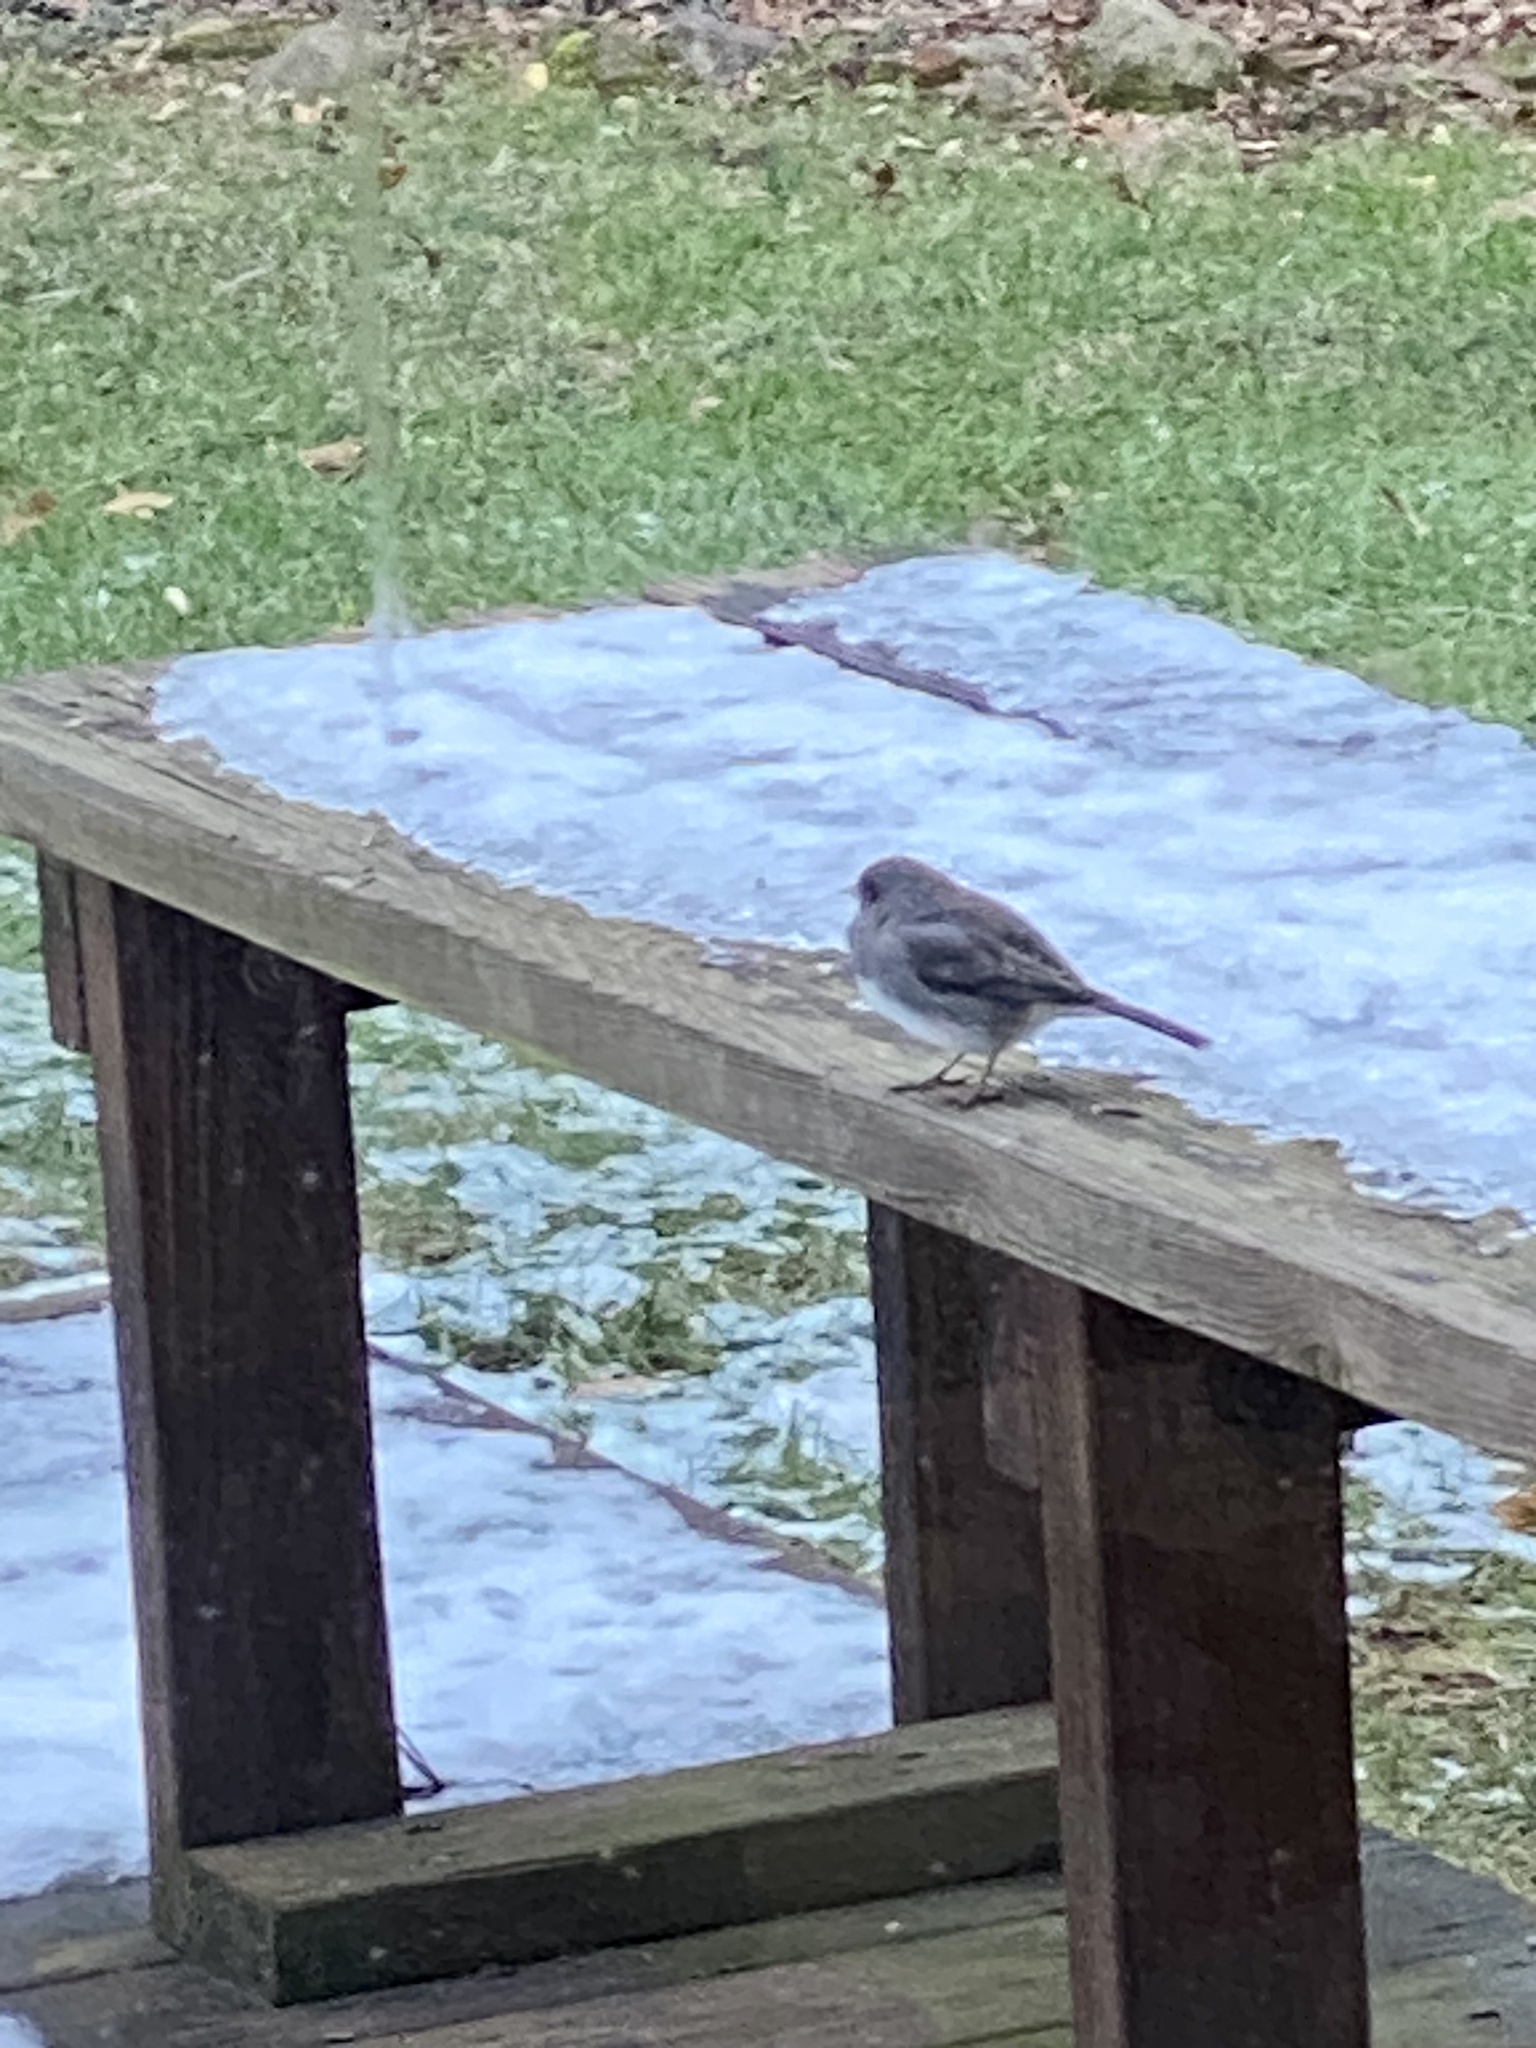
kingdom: Animalia
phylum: Chordata
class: Aves
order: Passeriformes
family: Passerellidae
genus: Junco
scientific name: Junco hyemalis
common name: Dark-eyed junco
